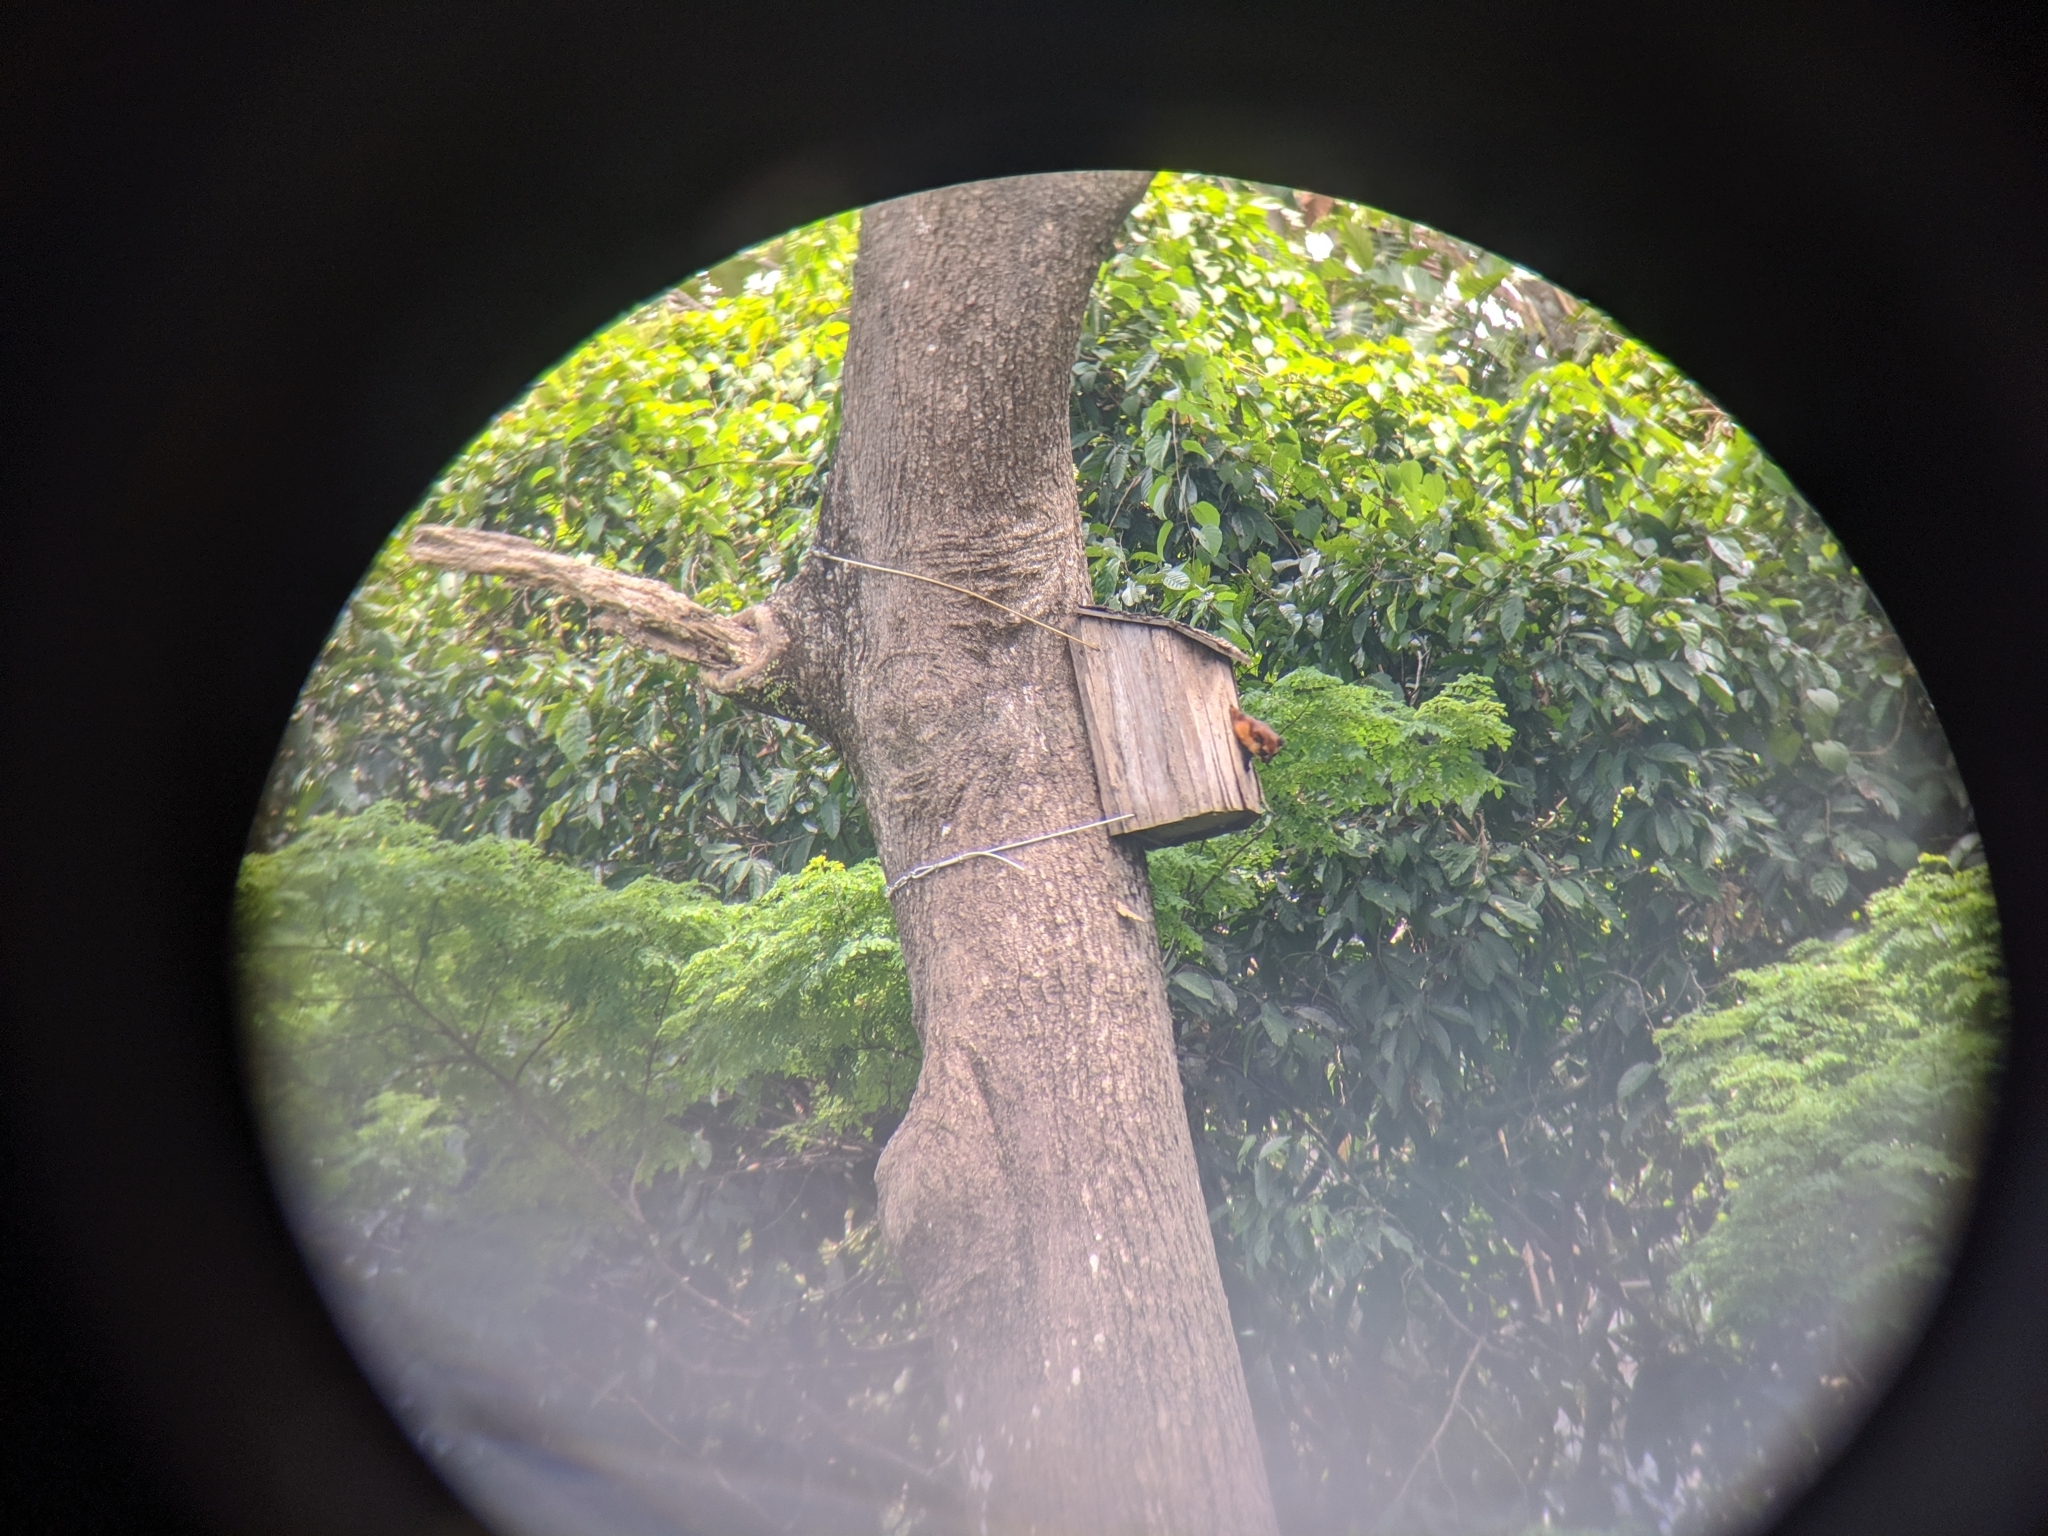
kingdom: Animalia
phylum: Chordata
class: Mammalia
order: Rodentia
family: Sciuridae
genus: Petaurista
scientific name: Petaurista petaurista
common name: Red giant flying squirrel
